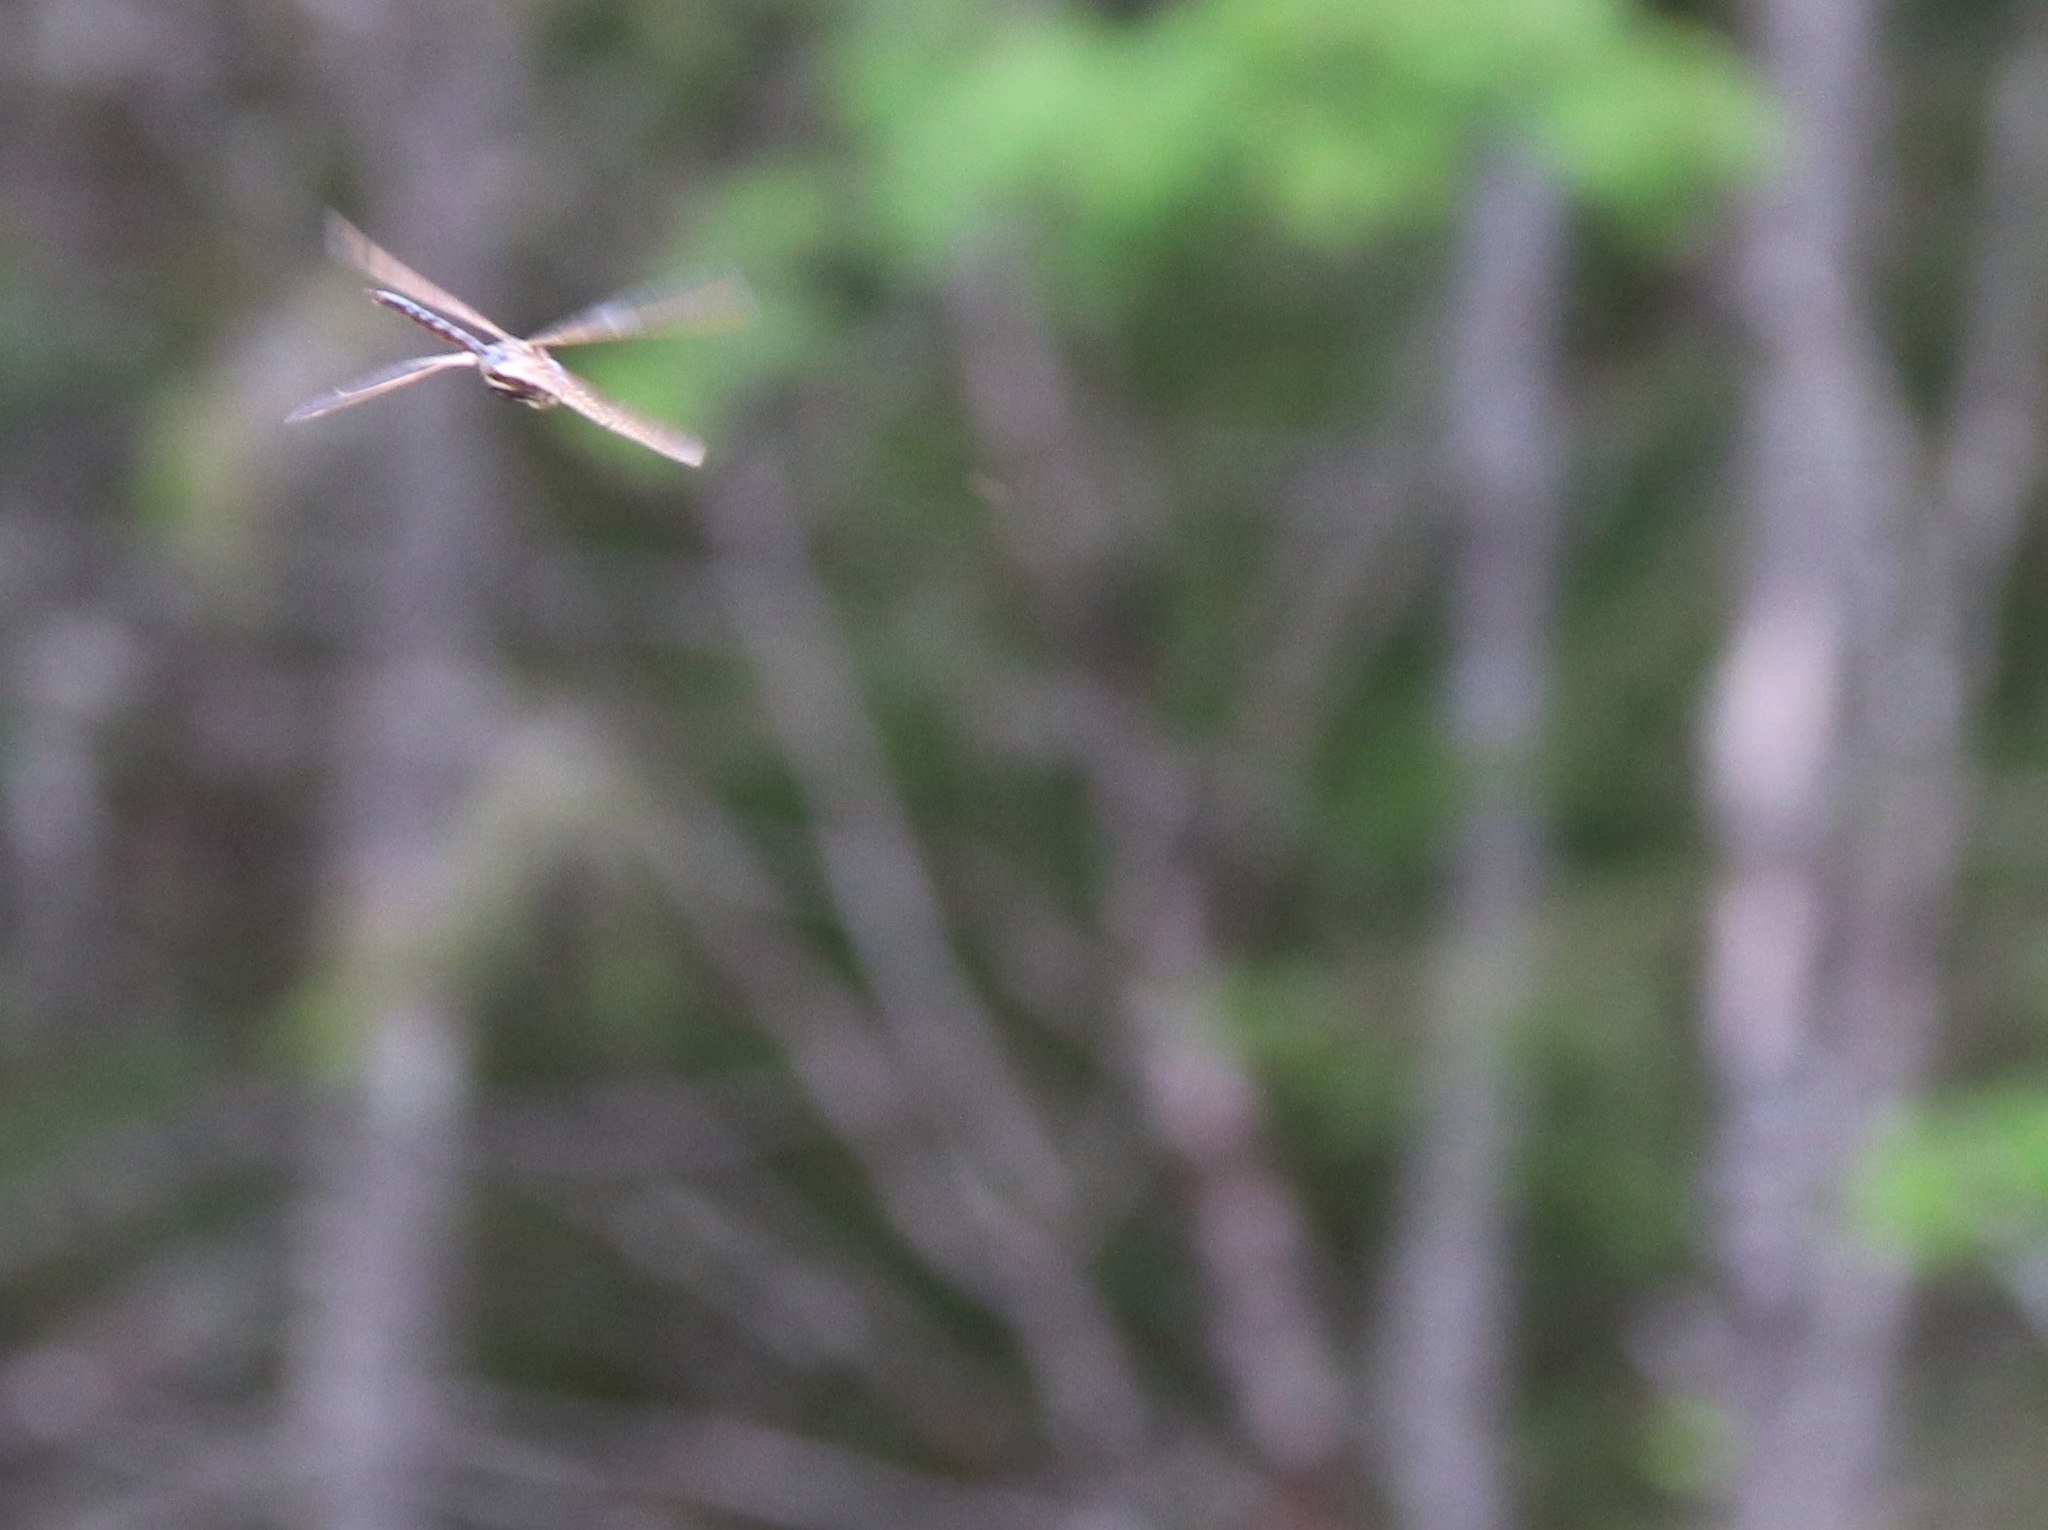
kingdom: Animalia
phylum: Arthropoda
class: Insecta
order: Odonata
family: Aeshnidae
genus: Anax
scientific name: Anax imperator
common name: Emperor dragonfly
